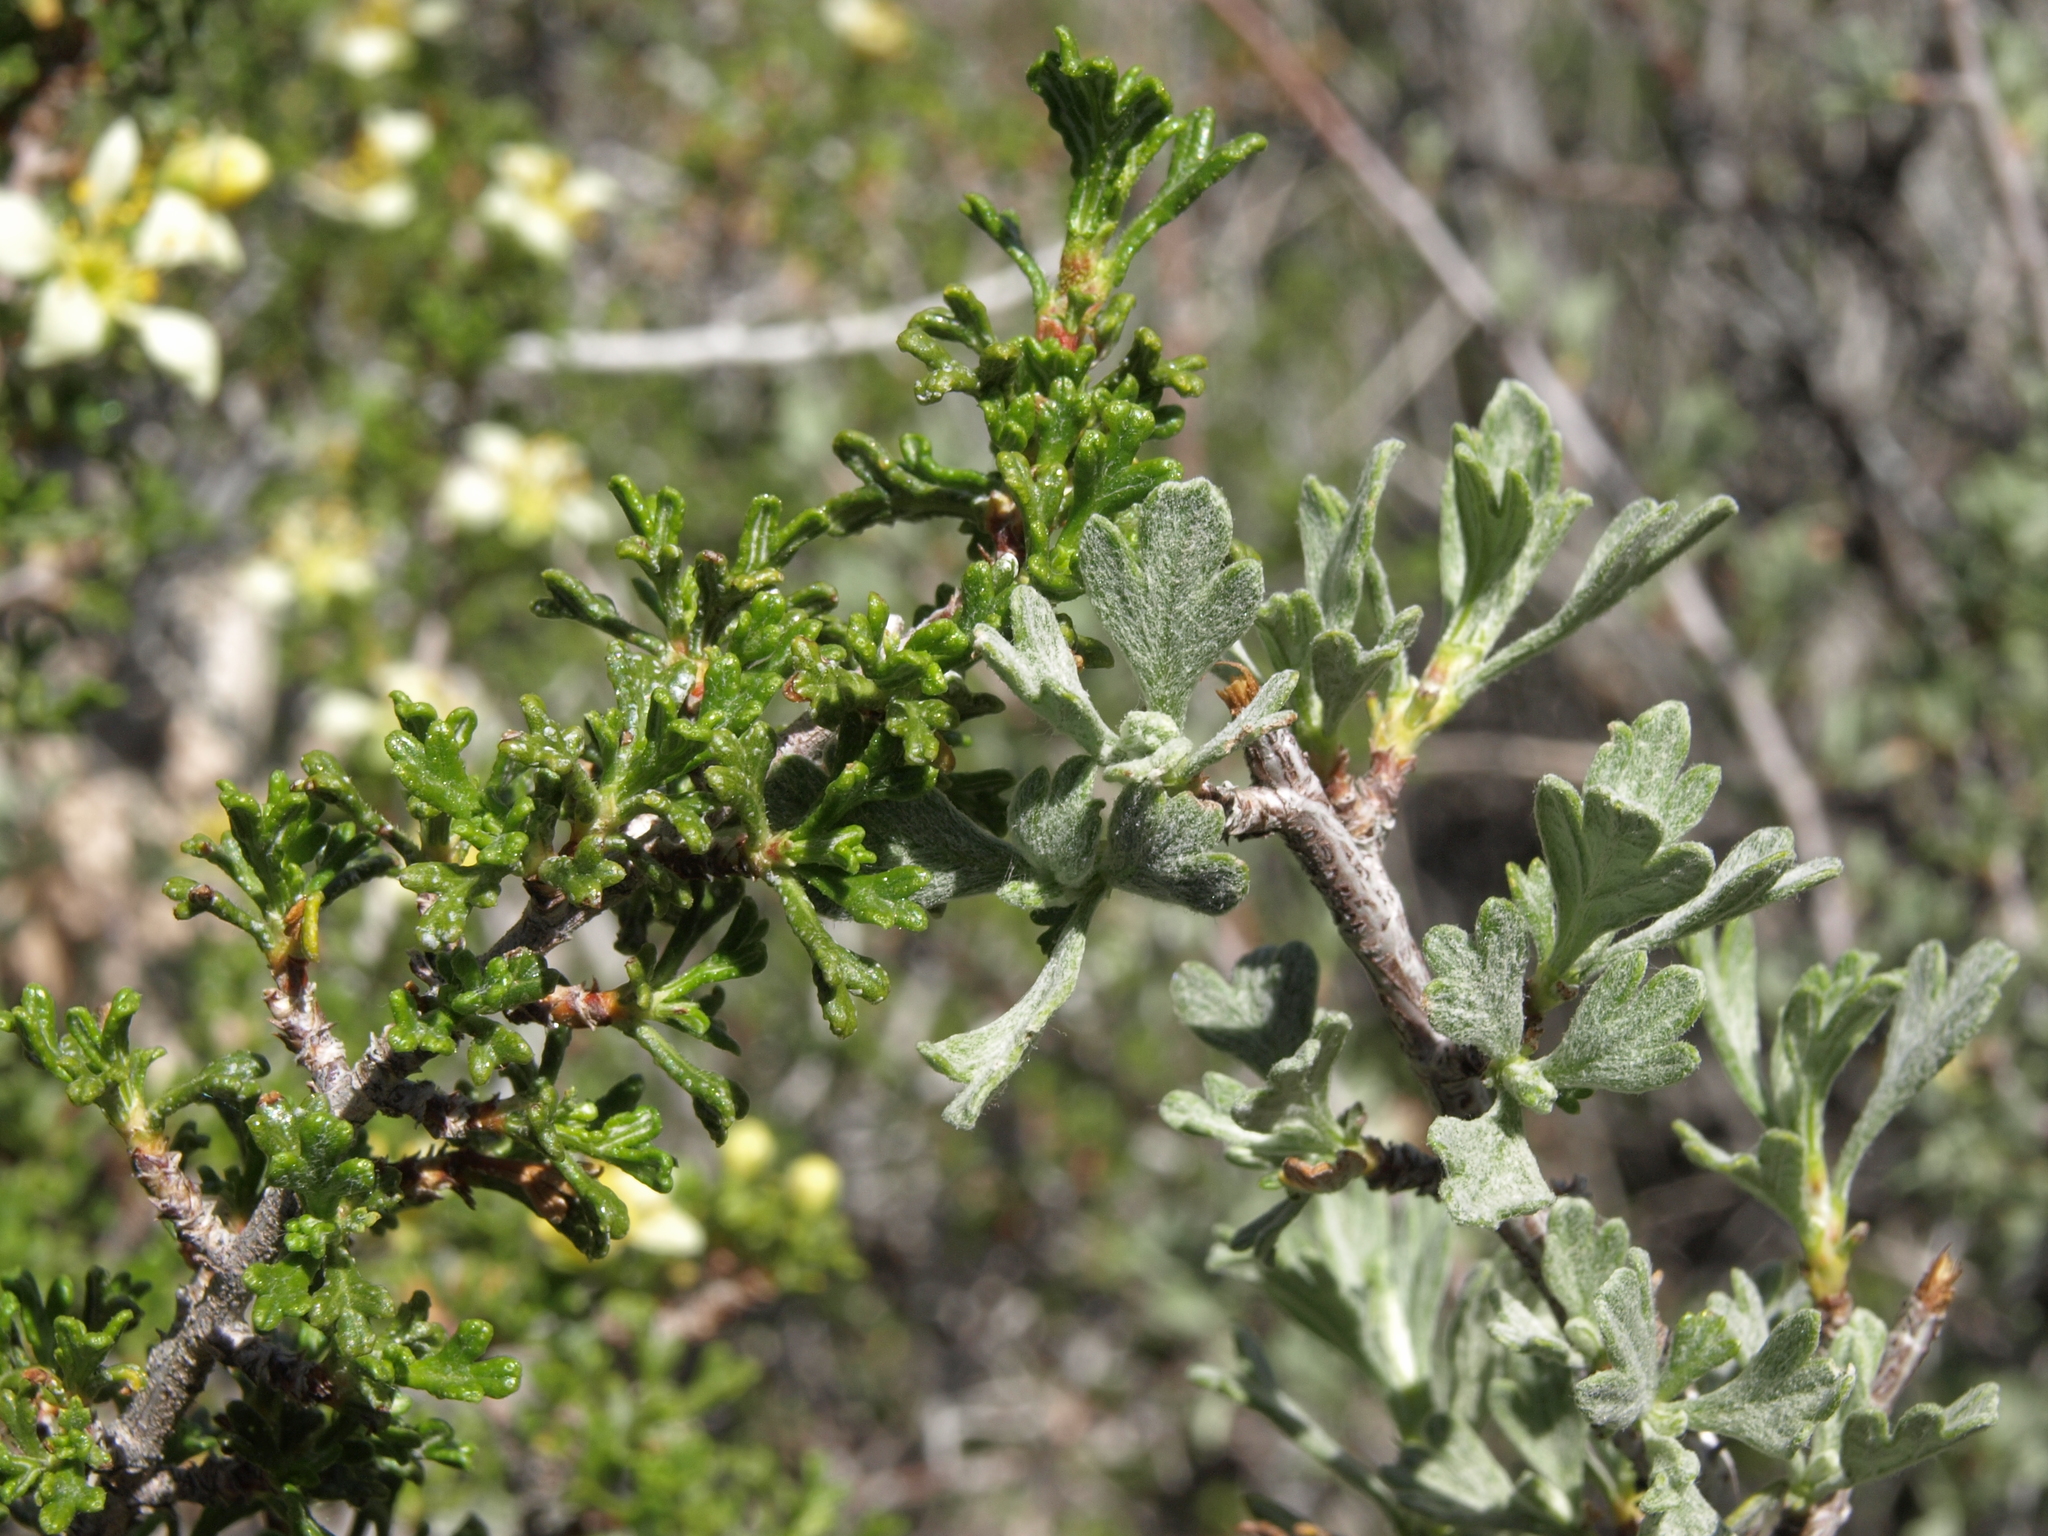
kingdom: Plantae
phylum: Tracheophyta
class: Magnoliopsida
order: Rosales
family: Rosaceae
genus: Purshia
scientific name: Purshia tridentata
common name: Antelope bitterbrush
